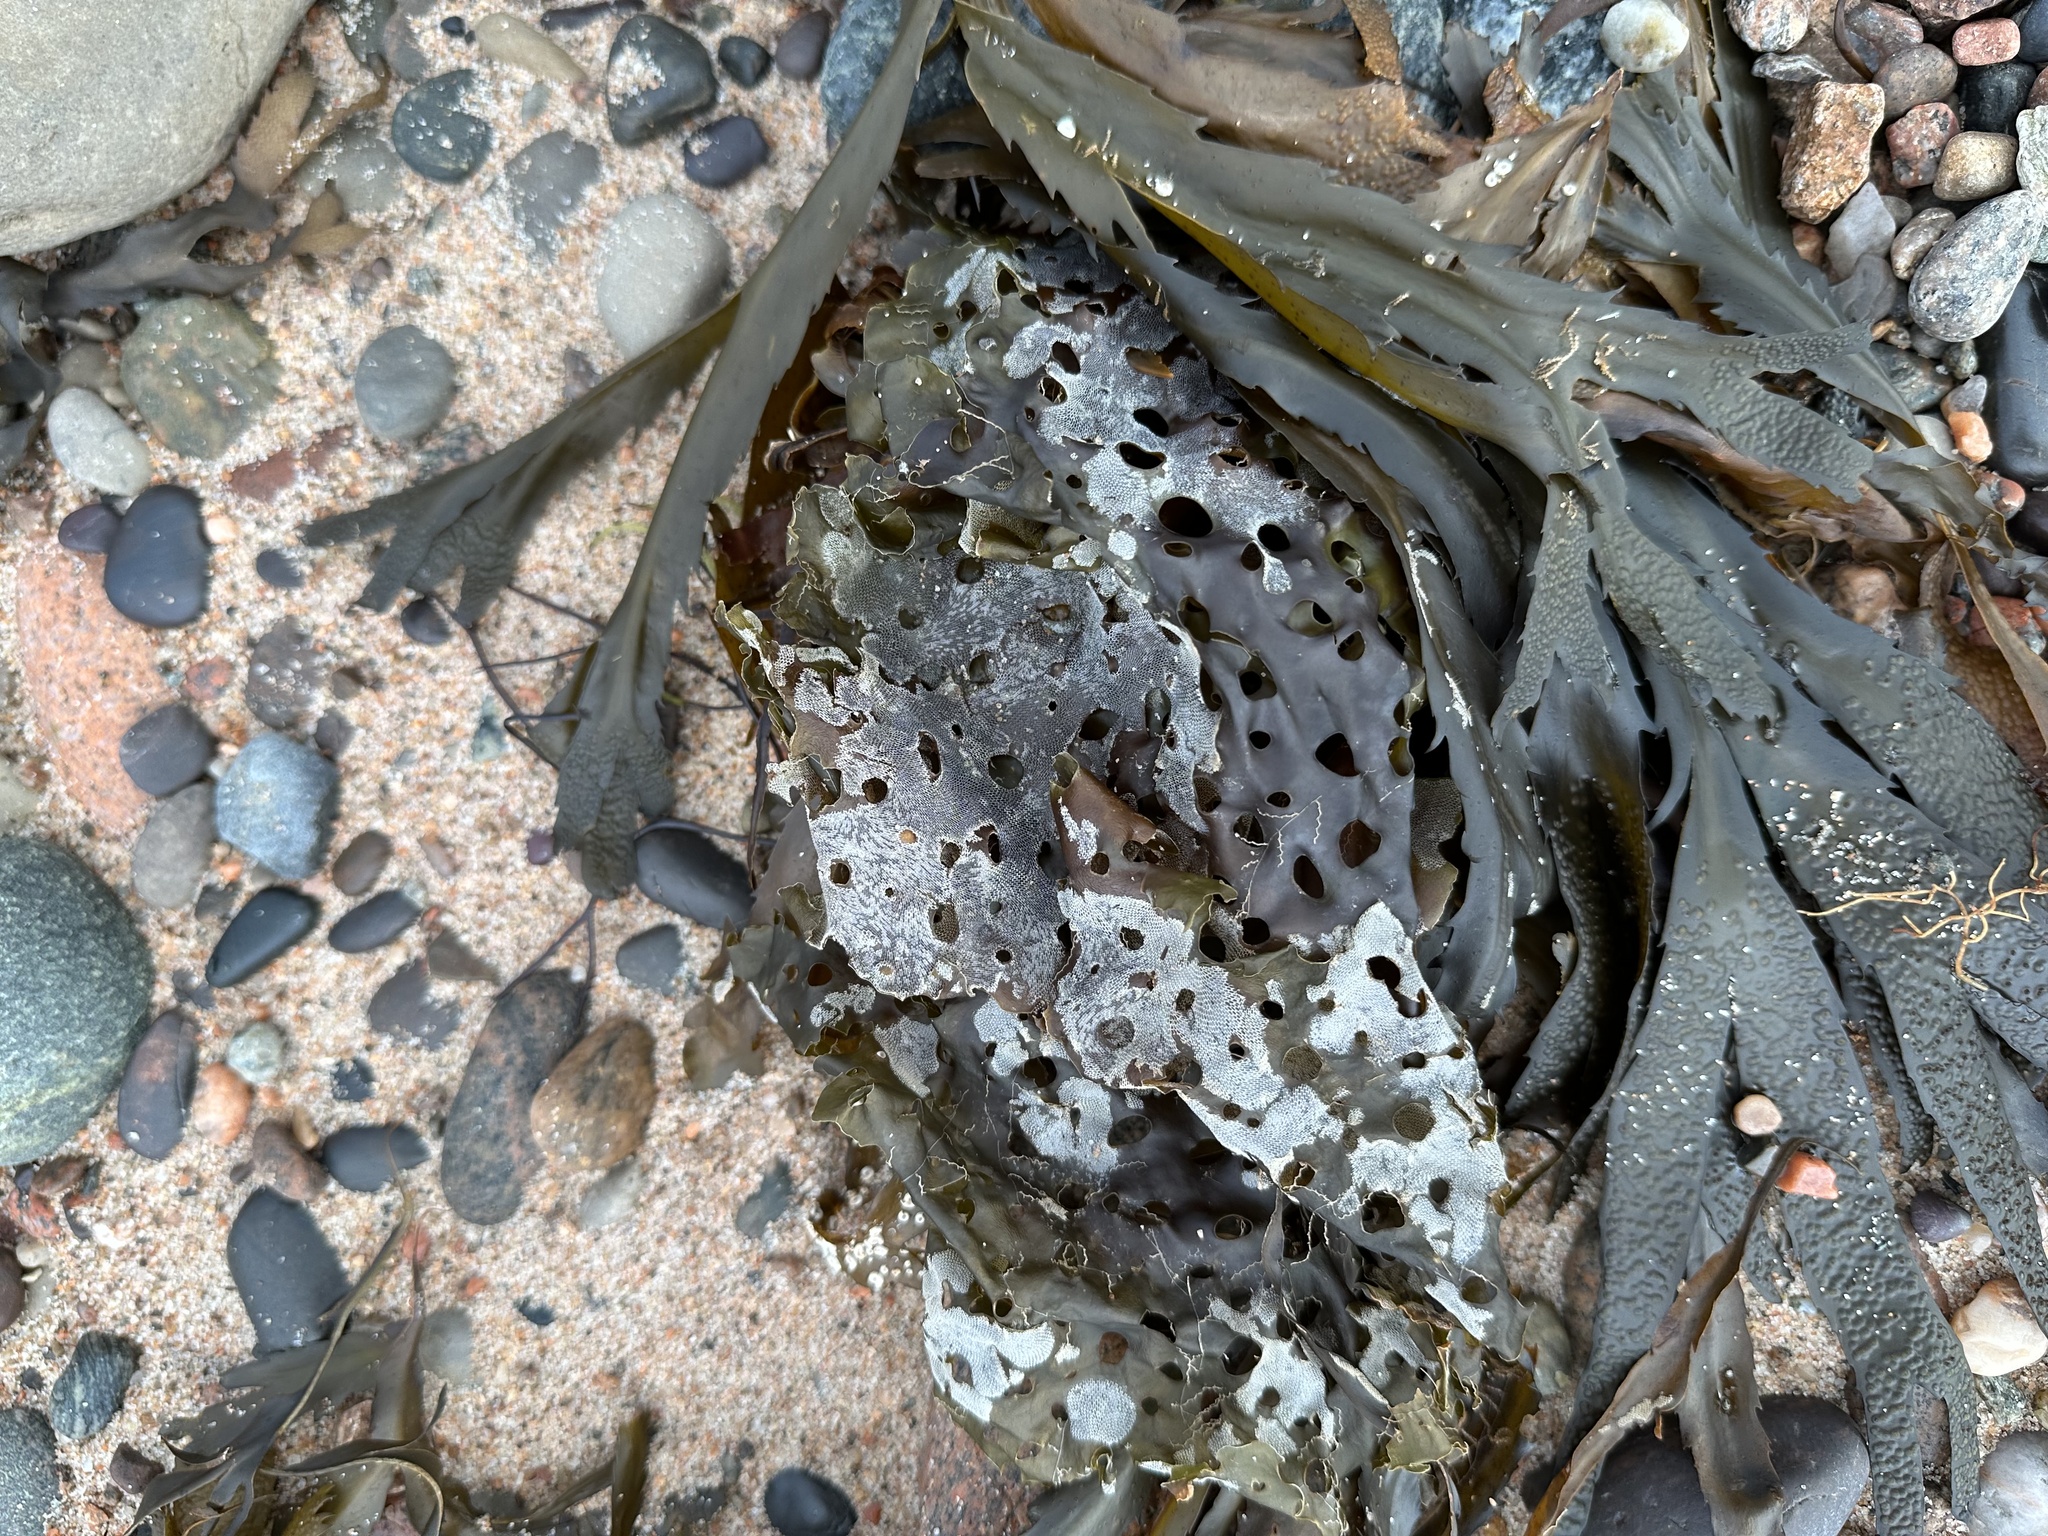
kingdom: Chromista
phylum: Ochrophyta
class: Phaeophyceae
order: Laminariales
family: Costariaceae
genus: Agarum
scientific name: Agarum clathratum
